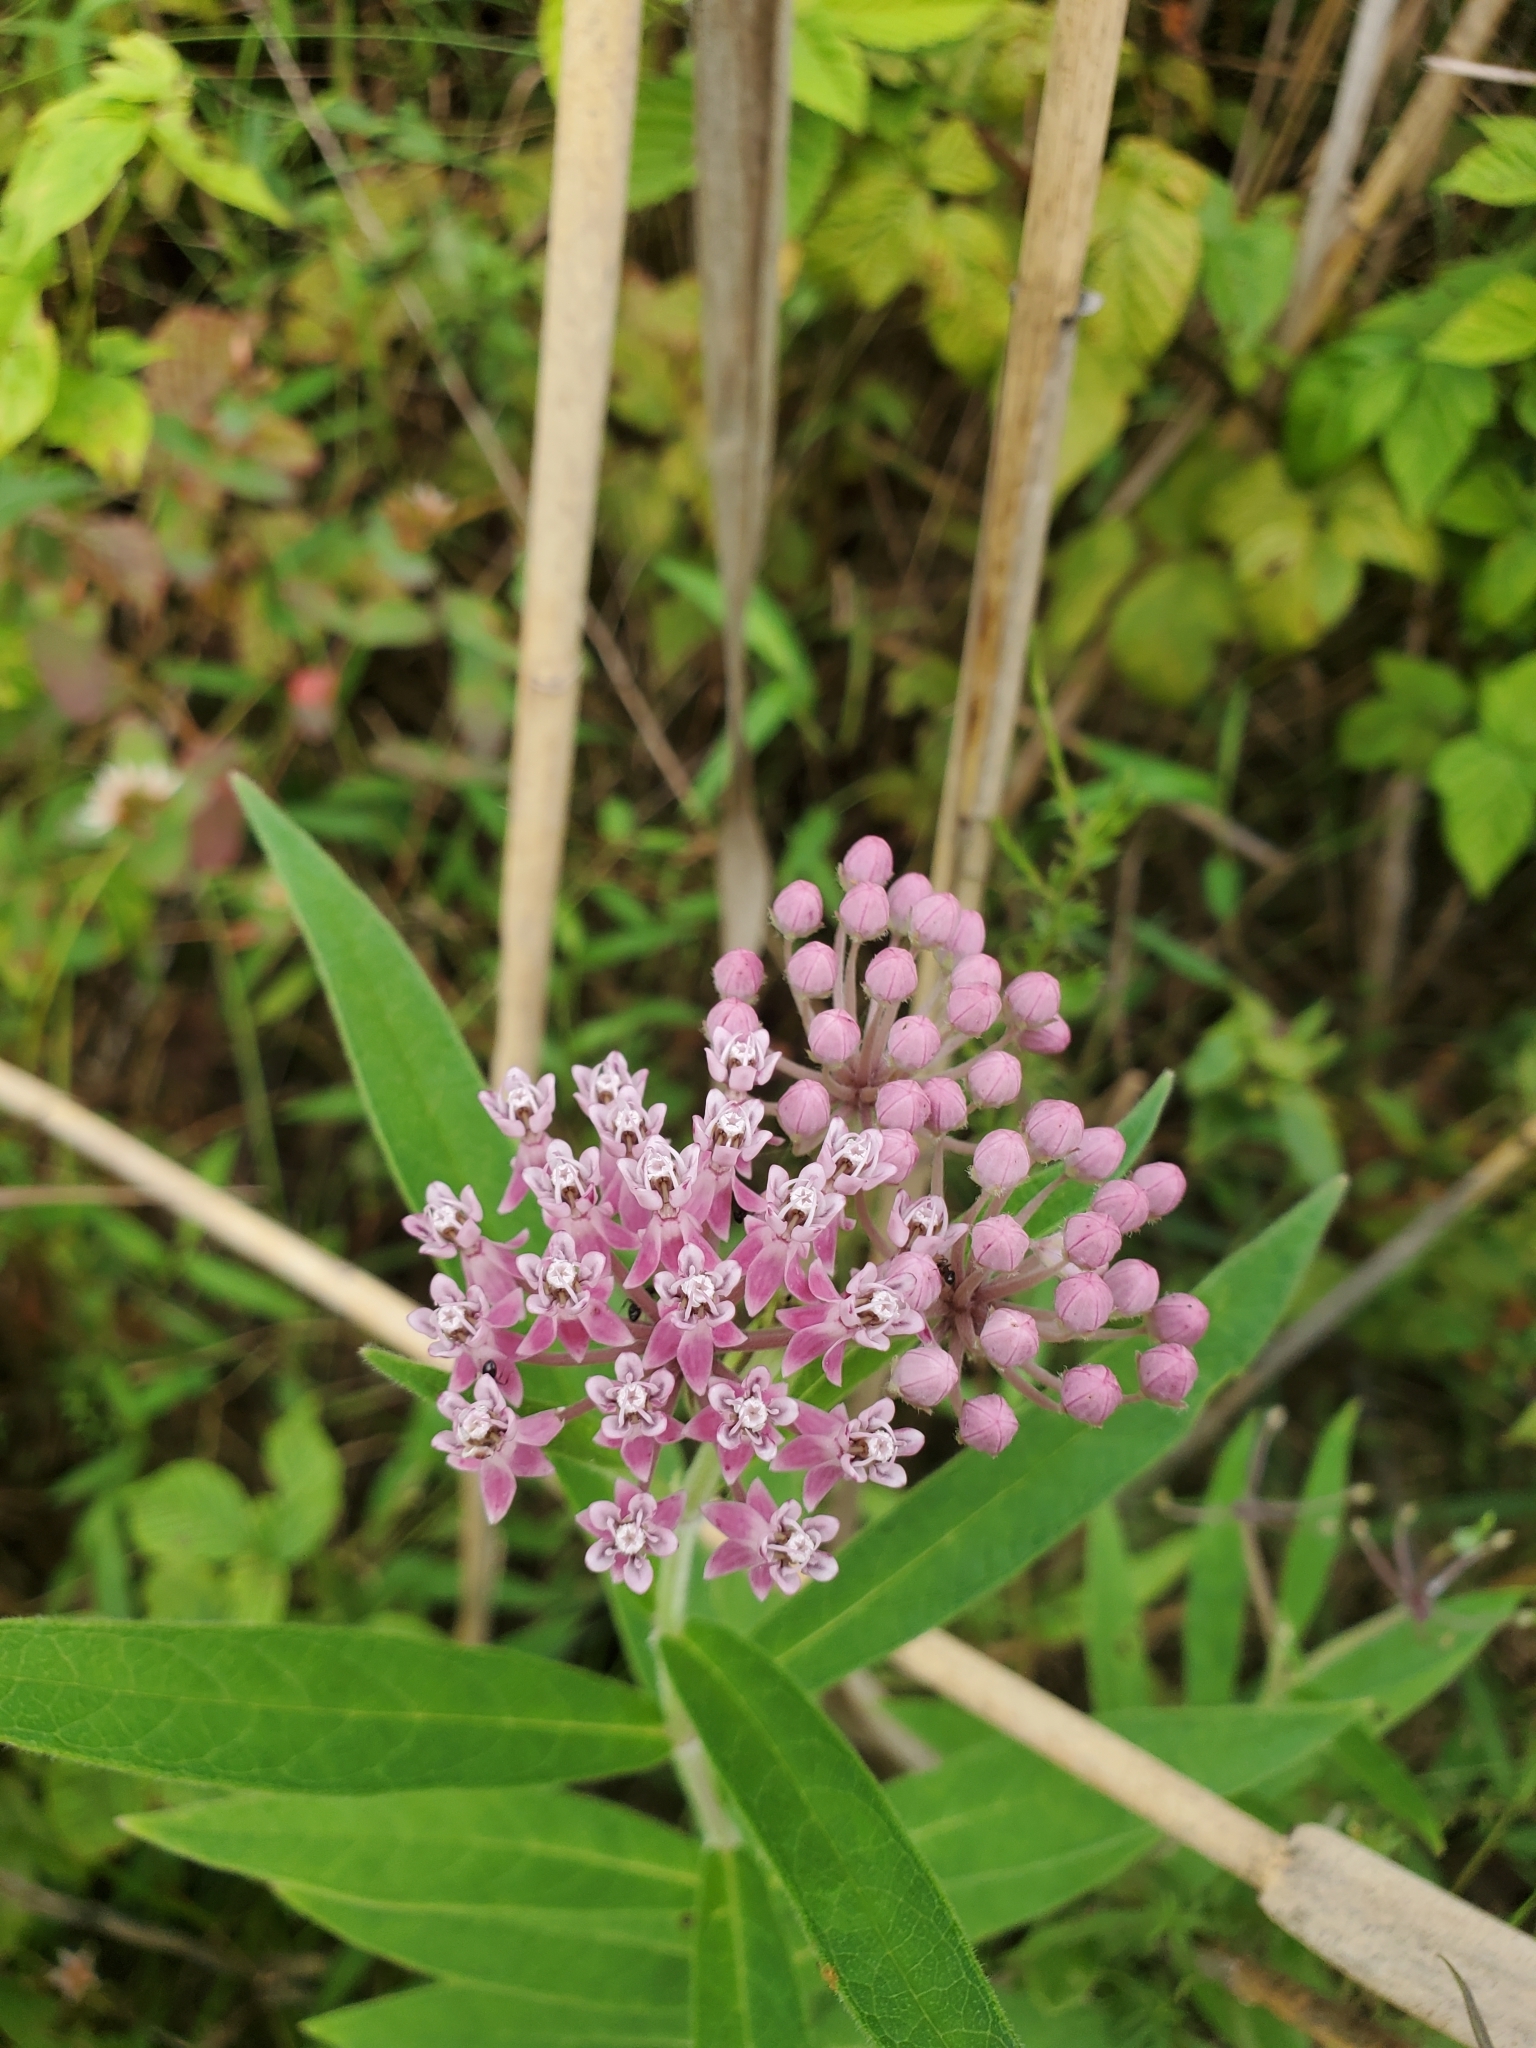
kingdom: Plantae
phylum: Tracheophyta
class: Magnoliopsida
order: Gentianales
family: Apocynaceae
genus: Asclepias
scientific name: Asclepias incarnata
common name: Swamp milkweed
